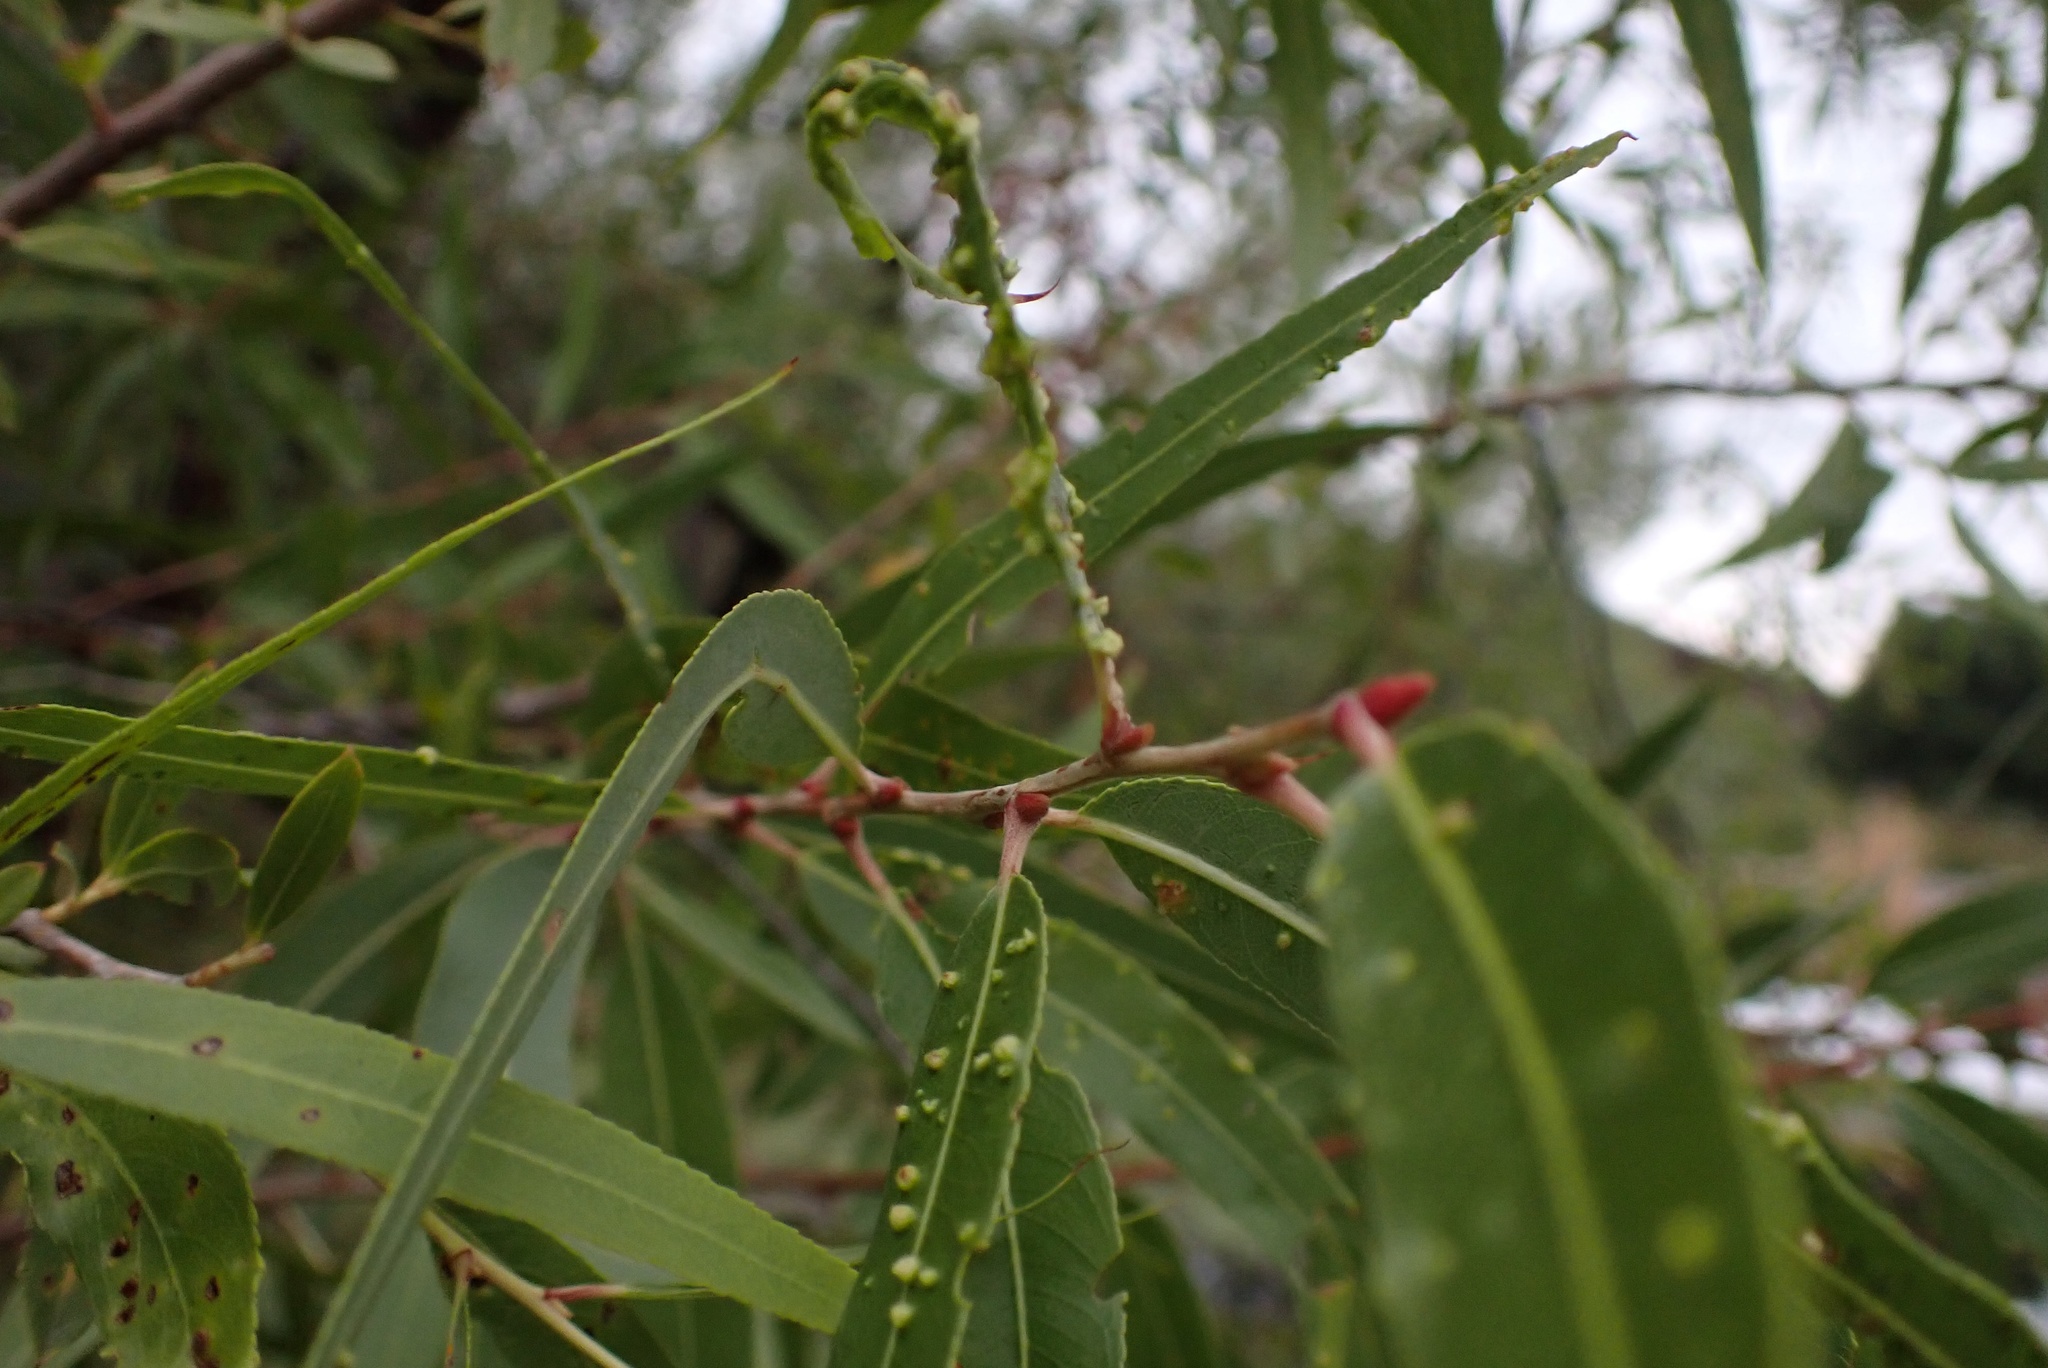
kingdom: Plantae
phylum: Tracheophyta
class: Magnoliopsida
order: Malpighiales
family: Salicaceae
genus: Salix
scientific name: Salix gooddingii
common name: Goodding's willow
